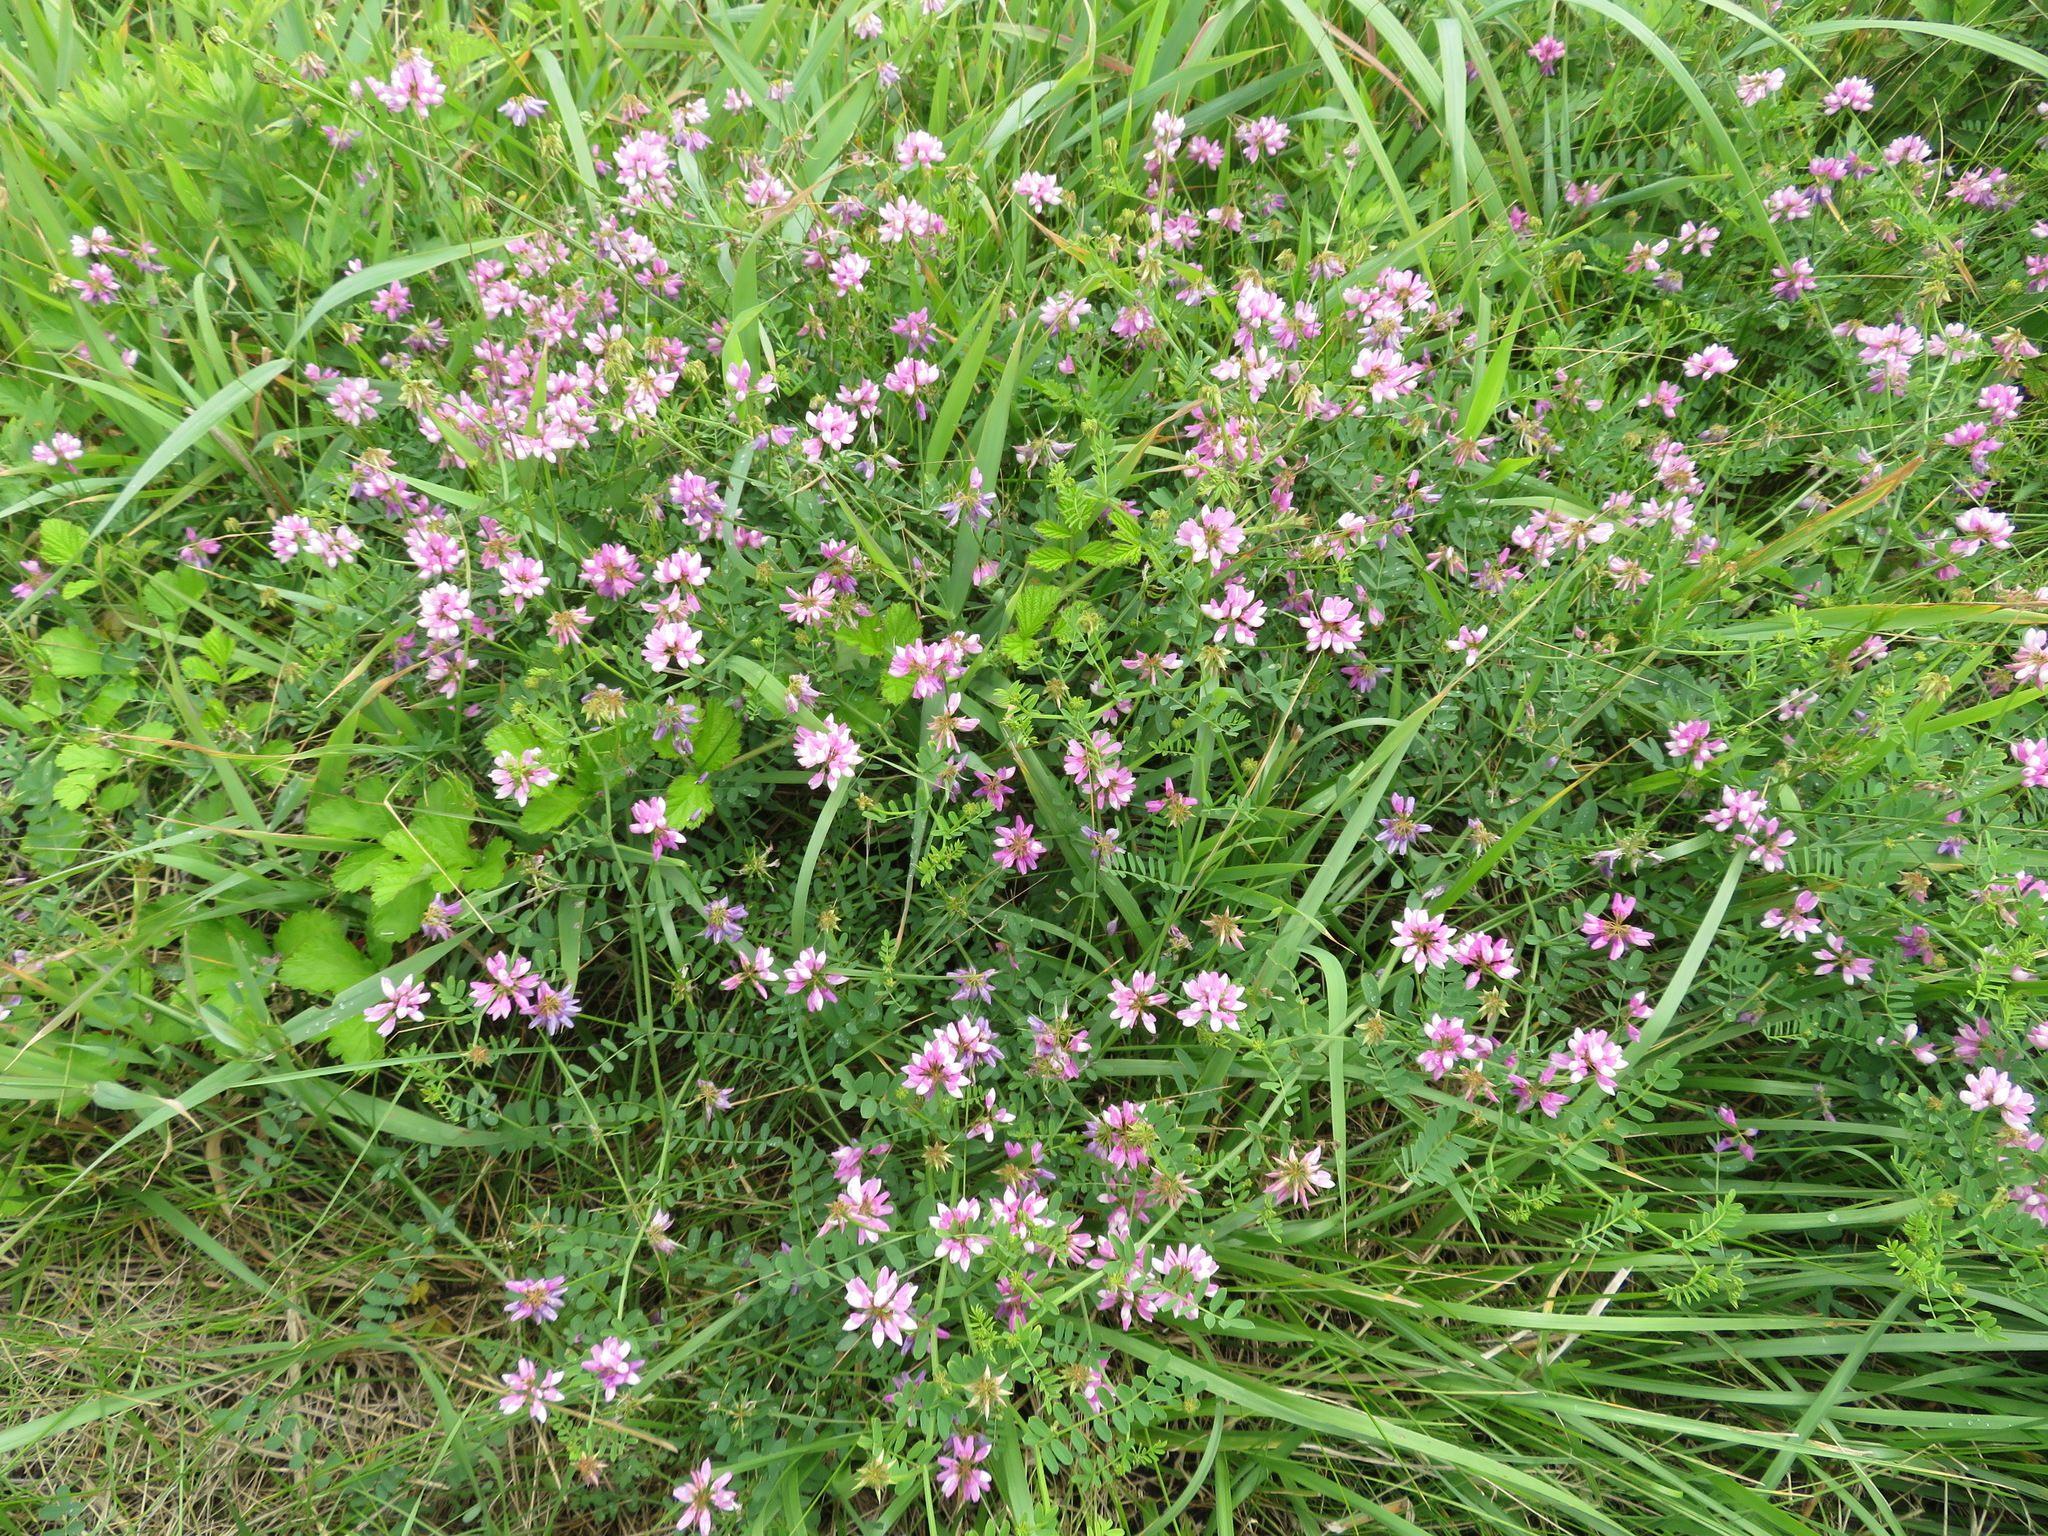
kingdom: Plantae
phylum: Tracheophyta
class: Magnoliopsida
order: Fabales
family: Fabaceae
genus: Coronilla
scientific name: Coronilla varia
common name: Crownvetch
